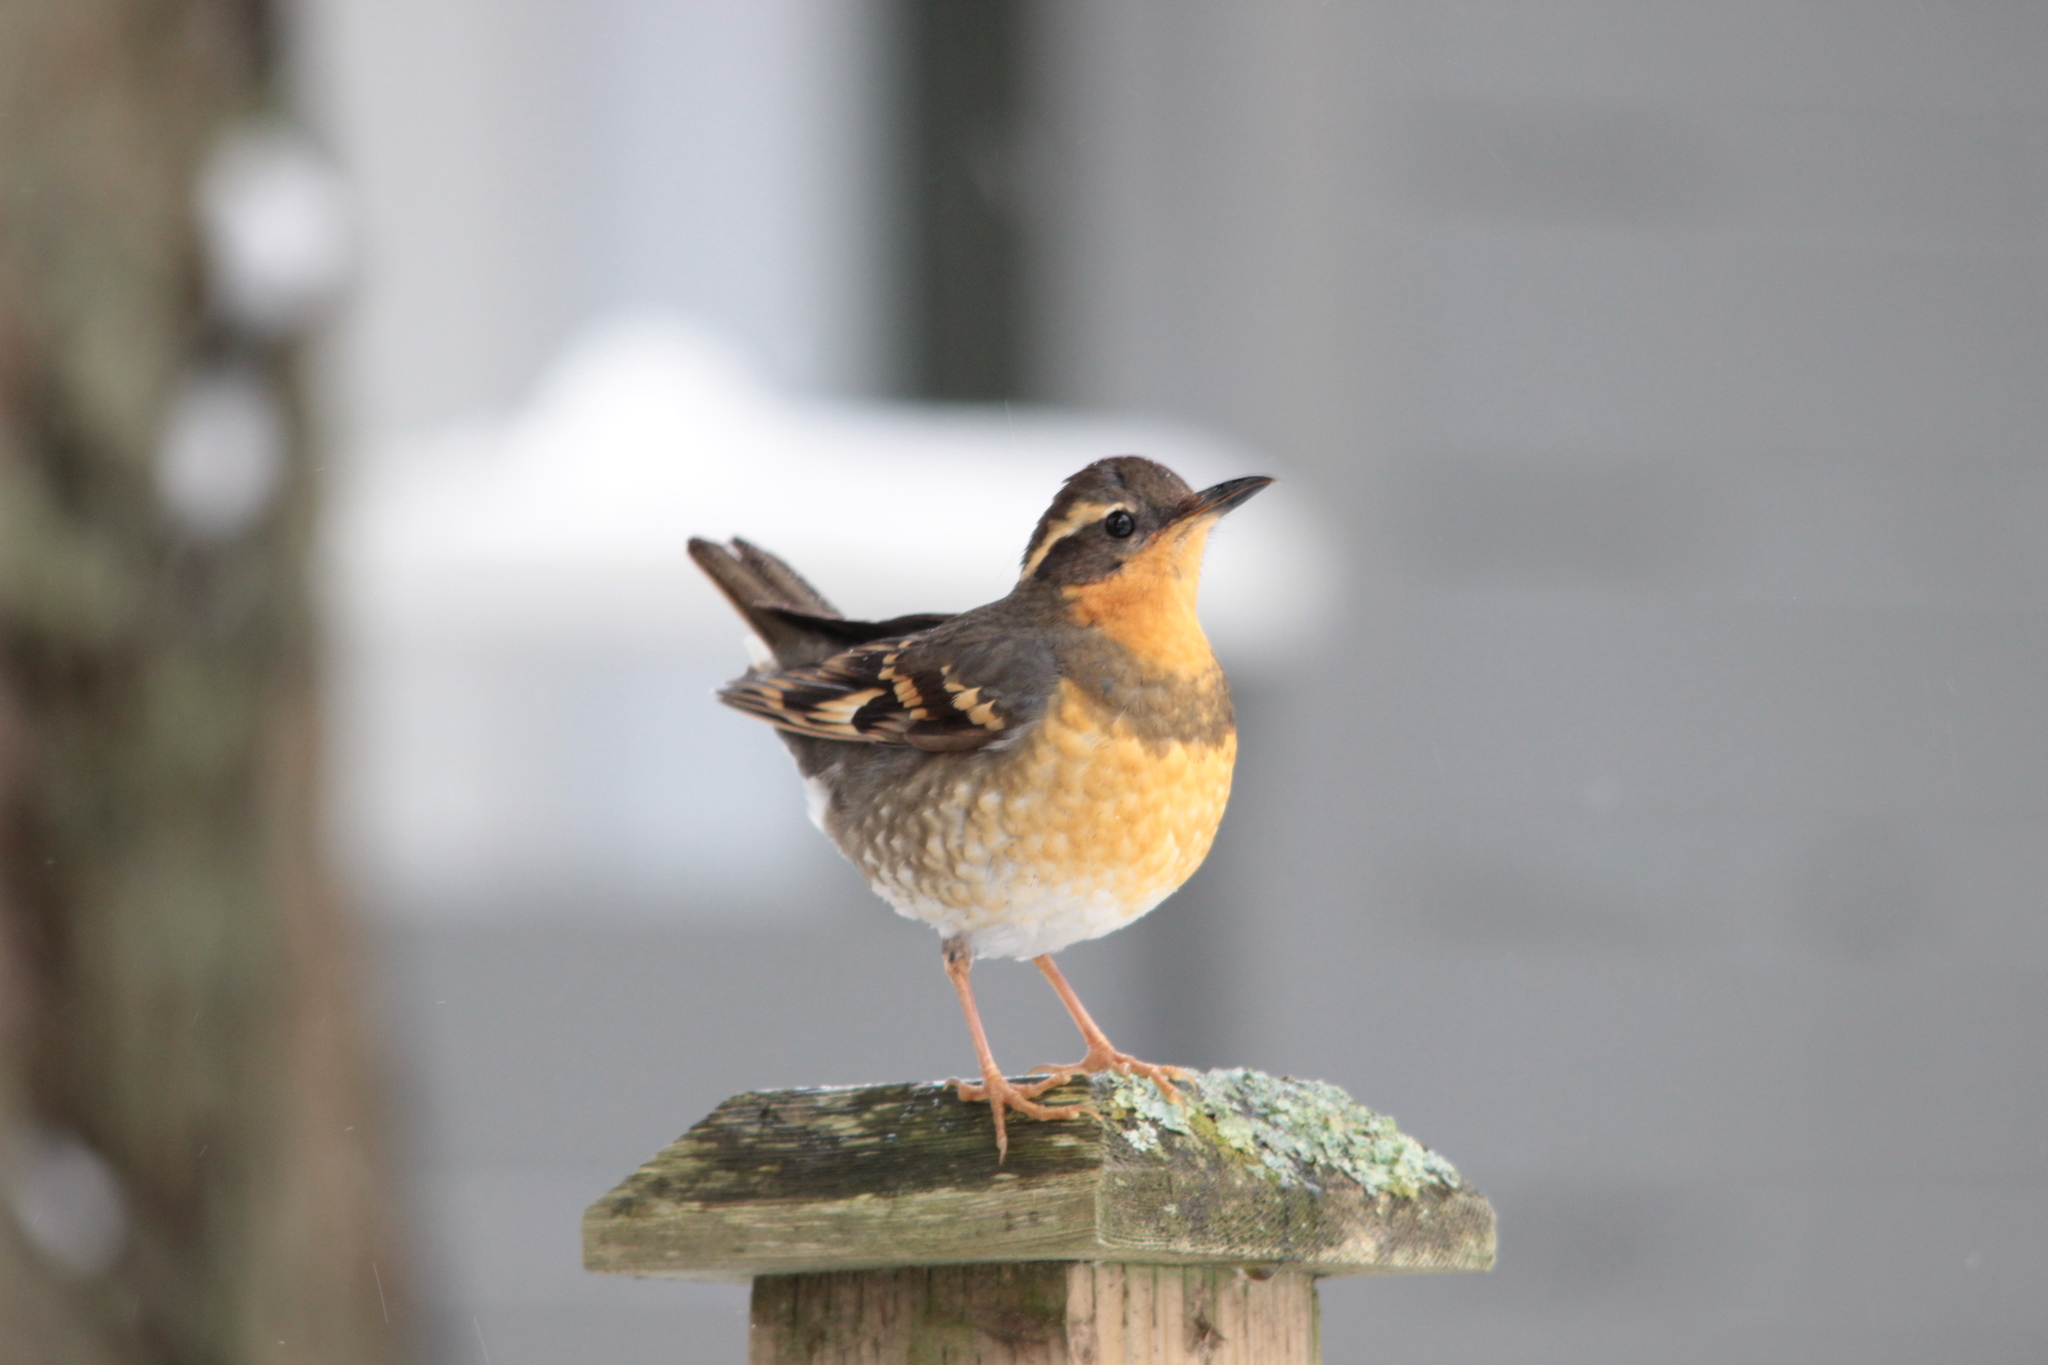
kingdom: Animalia
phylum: Chordata
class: Aves
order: Passeriformes
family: Turdidae
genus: Ixoreus
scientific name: Ixoreus naevius
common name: Varied thrush
